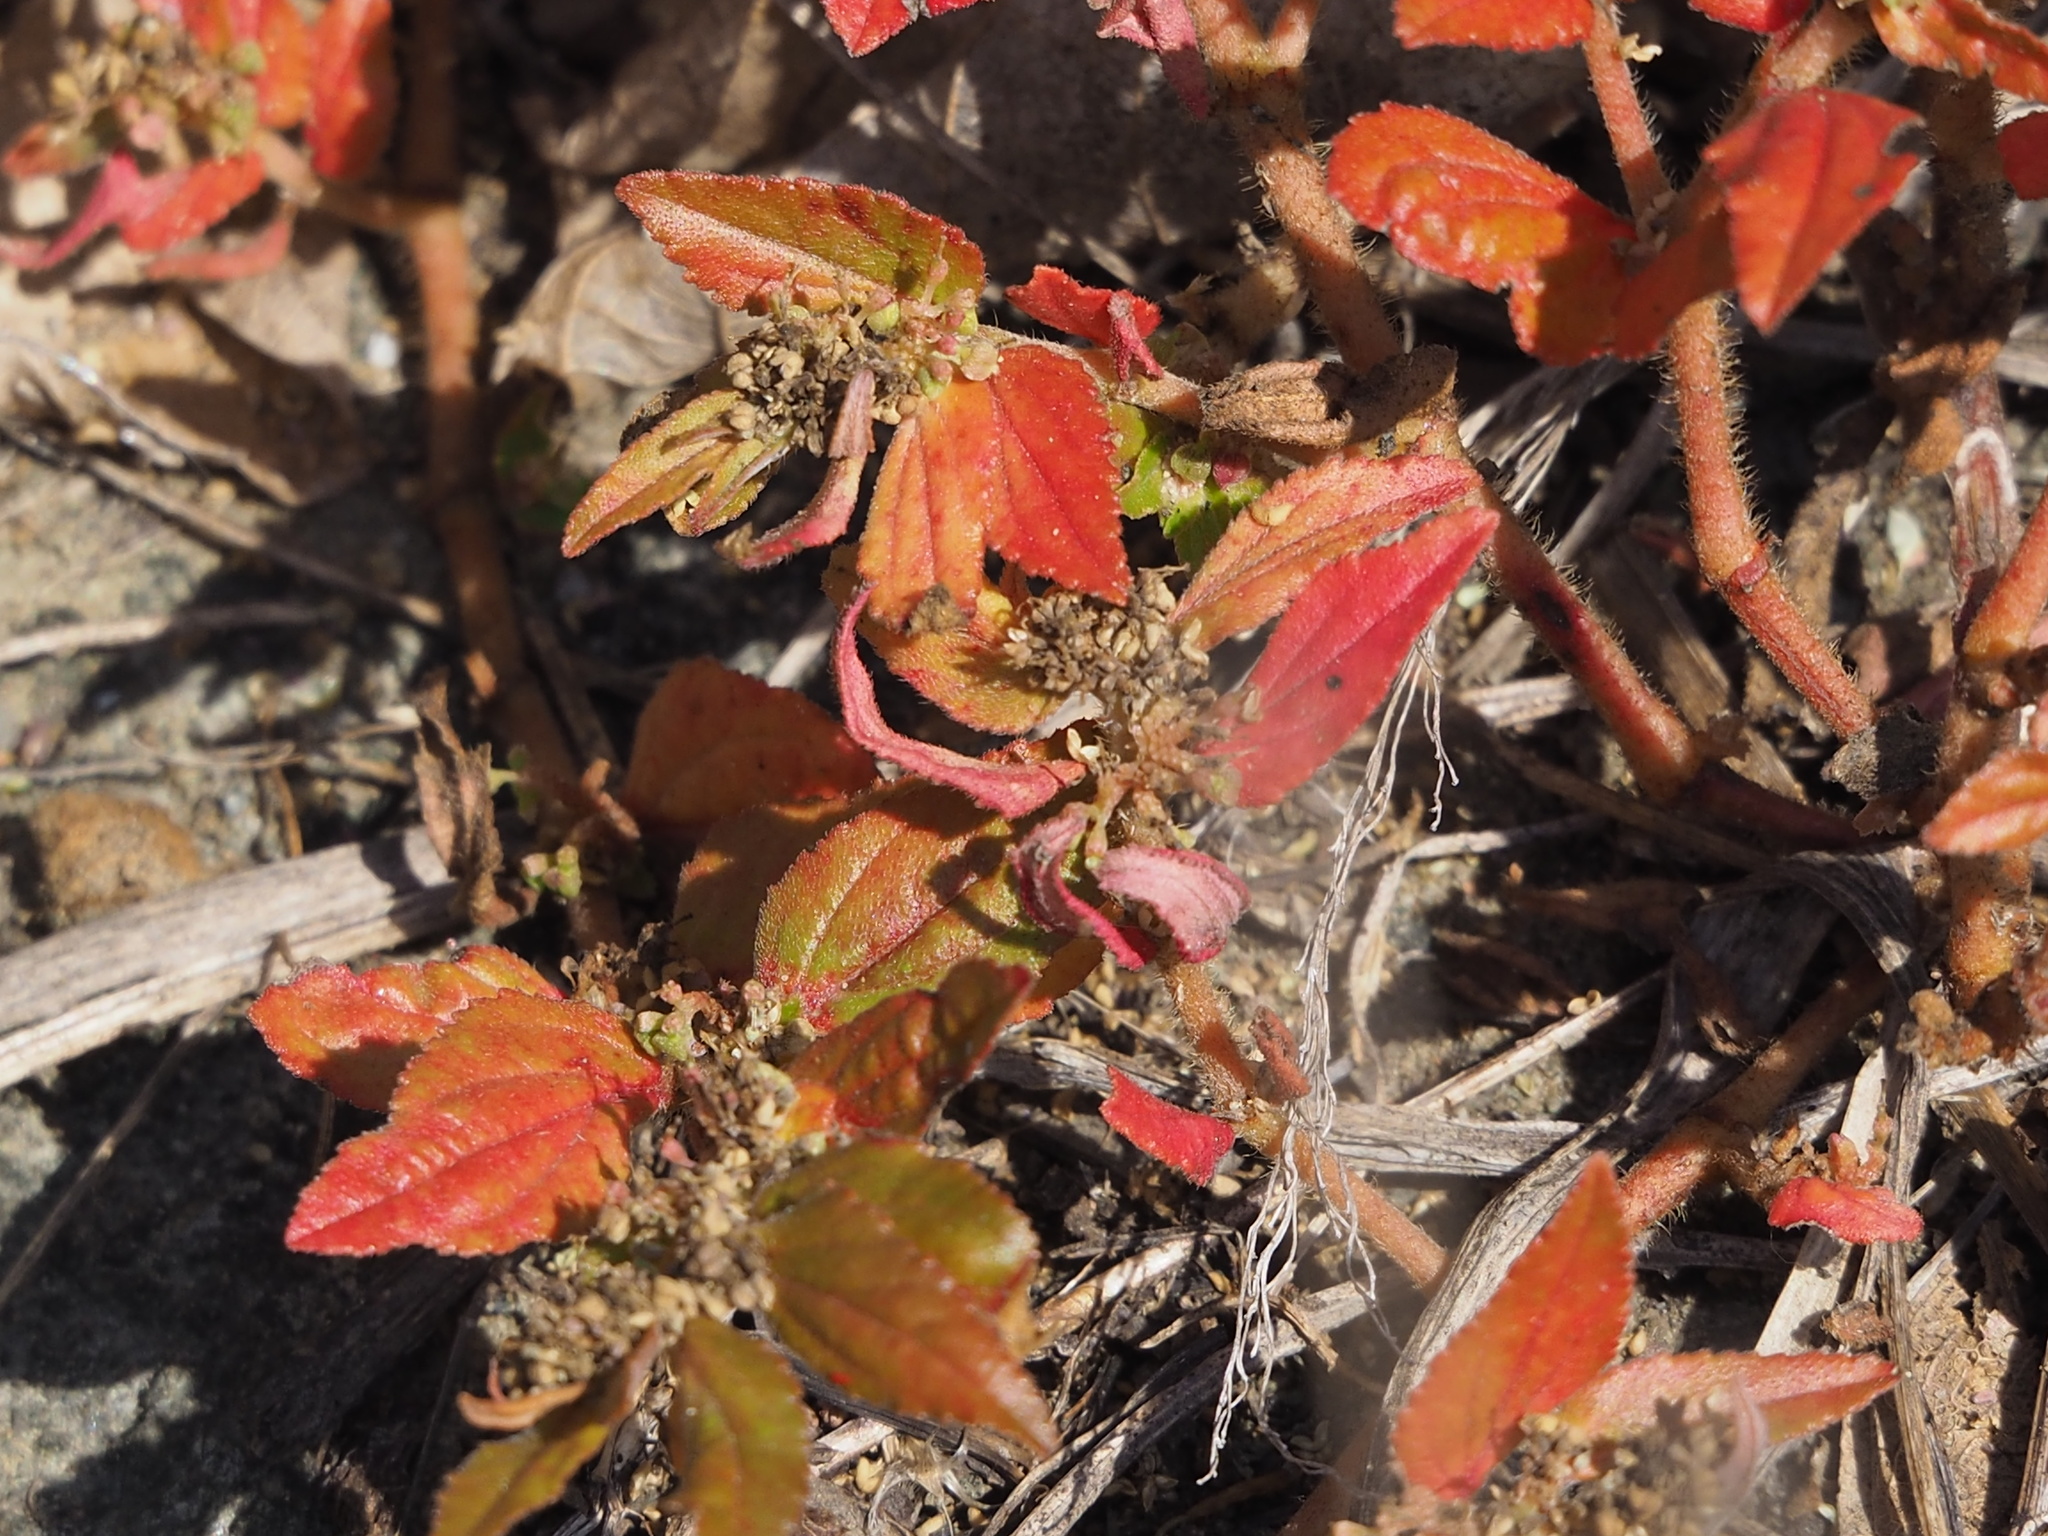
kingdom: Plantae
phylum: Tracheophyta
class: Magnoliopsida
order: Malpighiales
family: Euphorbiaceae
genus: Euphorbia
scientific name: Euphorbia hirta
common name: Pillpod sandmat
